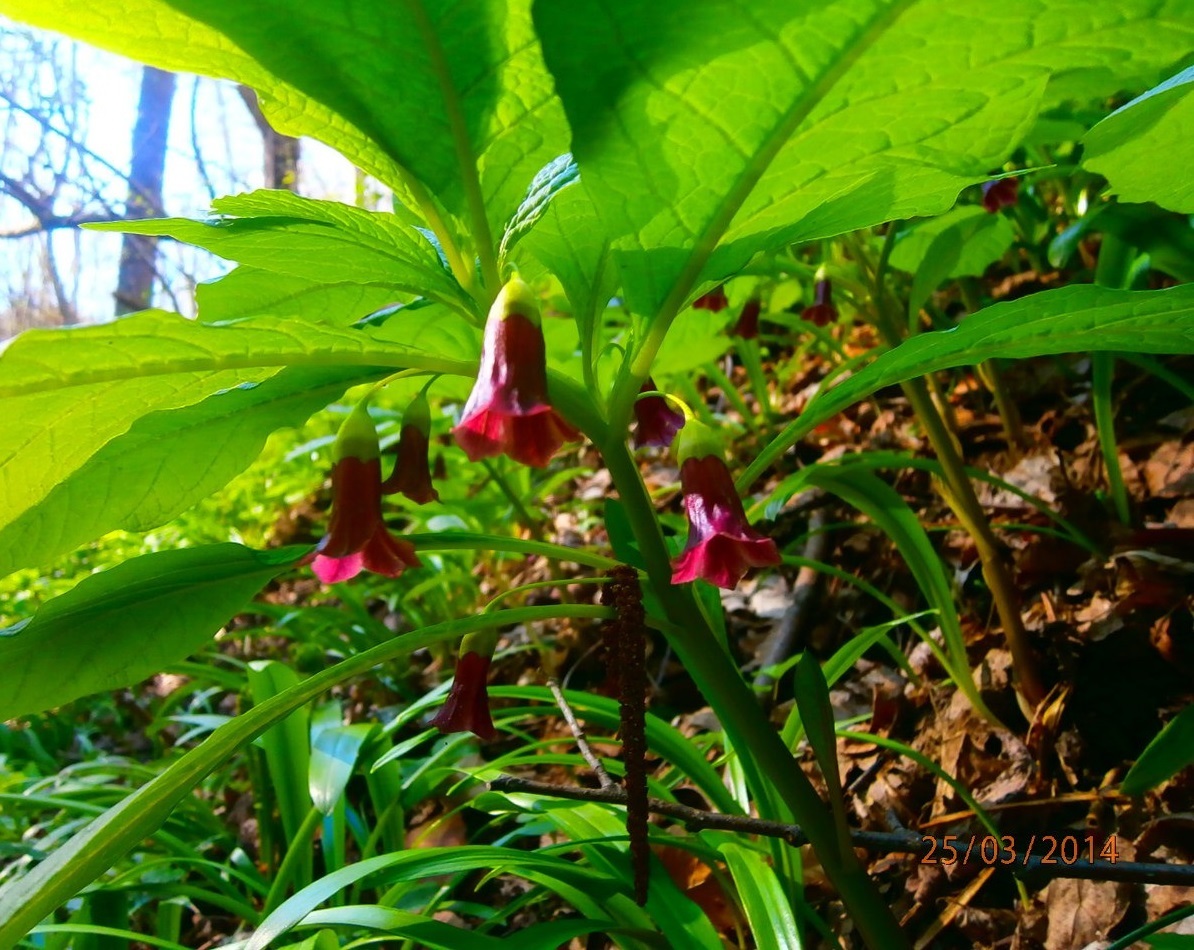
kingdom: Plantae
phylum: Tracheophyta
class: Magnoliopsida
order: Solanales
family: Solanaceae
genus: Scopolia
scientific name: Scopolia carniolica
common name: Scopolia
